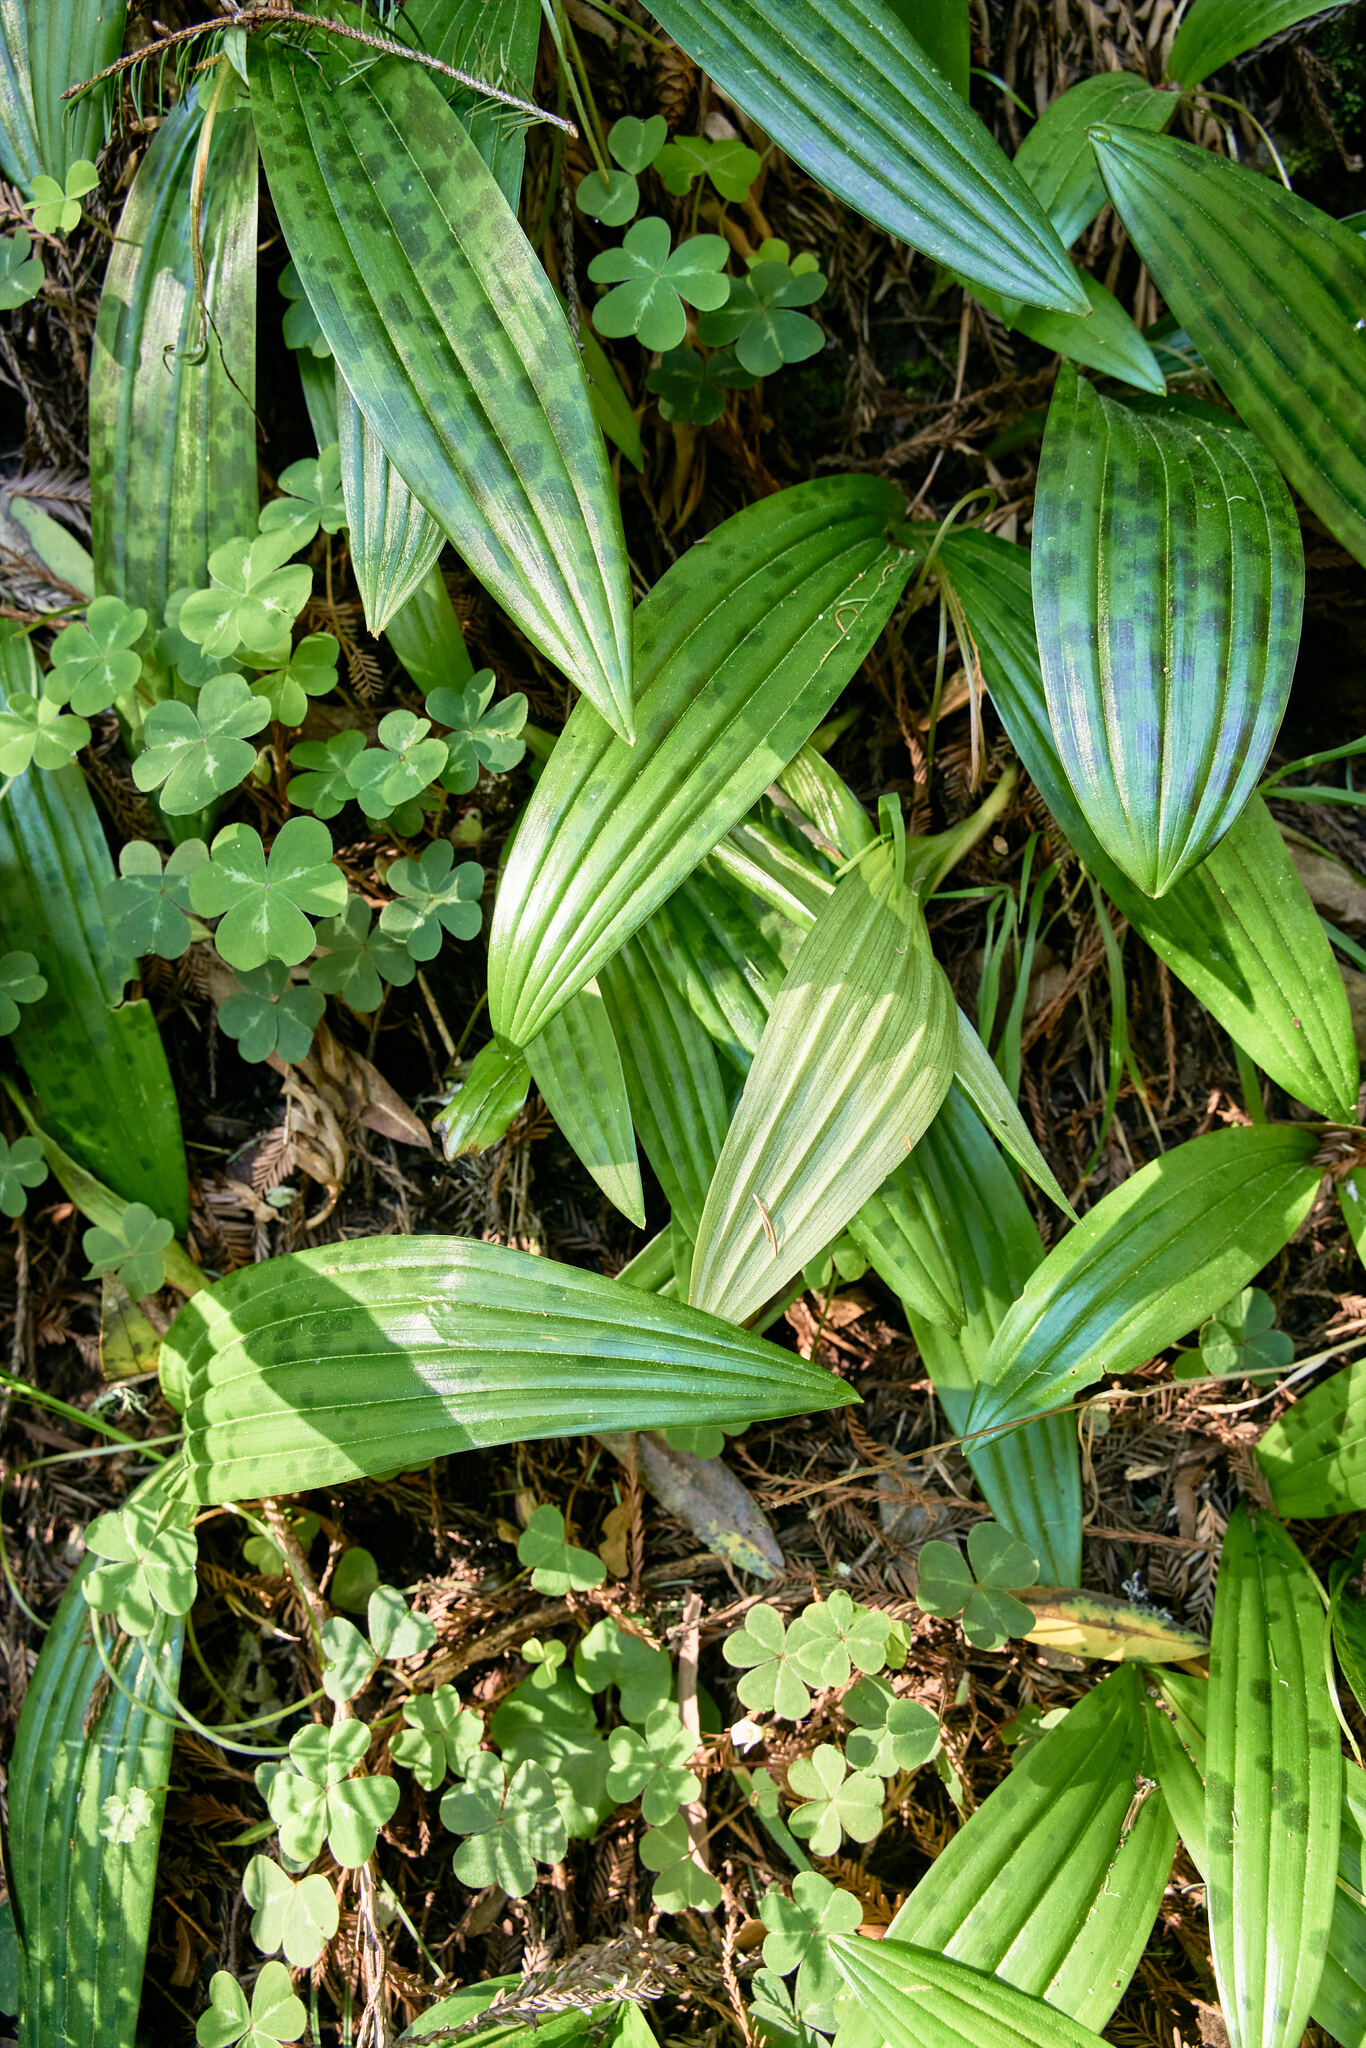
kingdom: Plantae
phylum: Tracheophyta
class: Liliopsida
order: Liliales
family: Liliaceae
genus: Scoliopus
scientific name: Scoliopus bigelovii
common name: Foetid adder's-tongue
